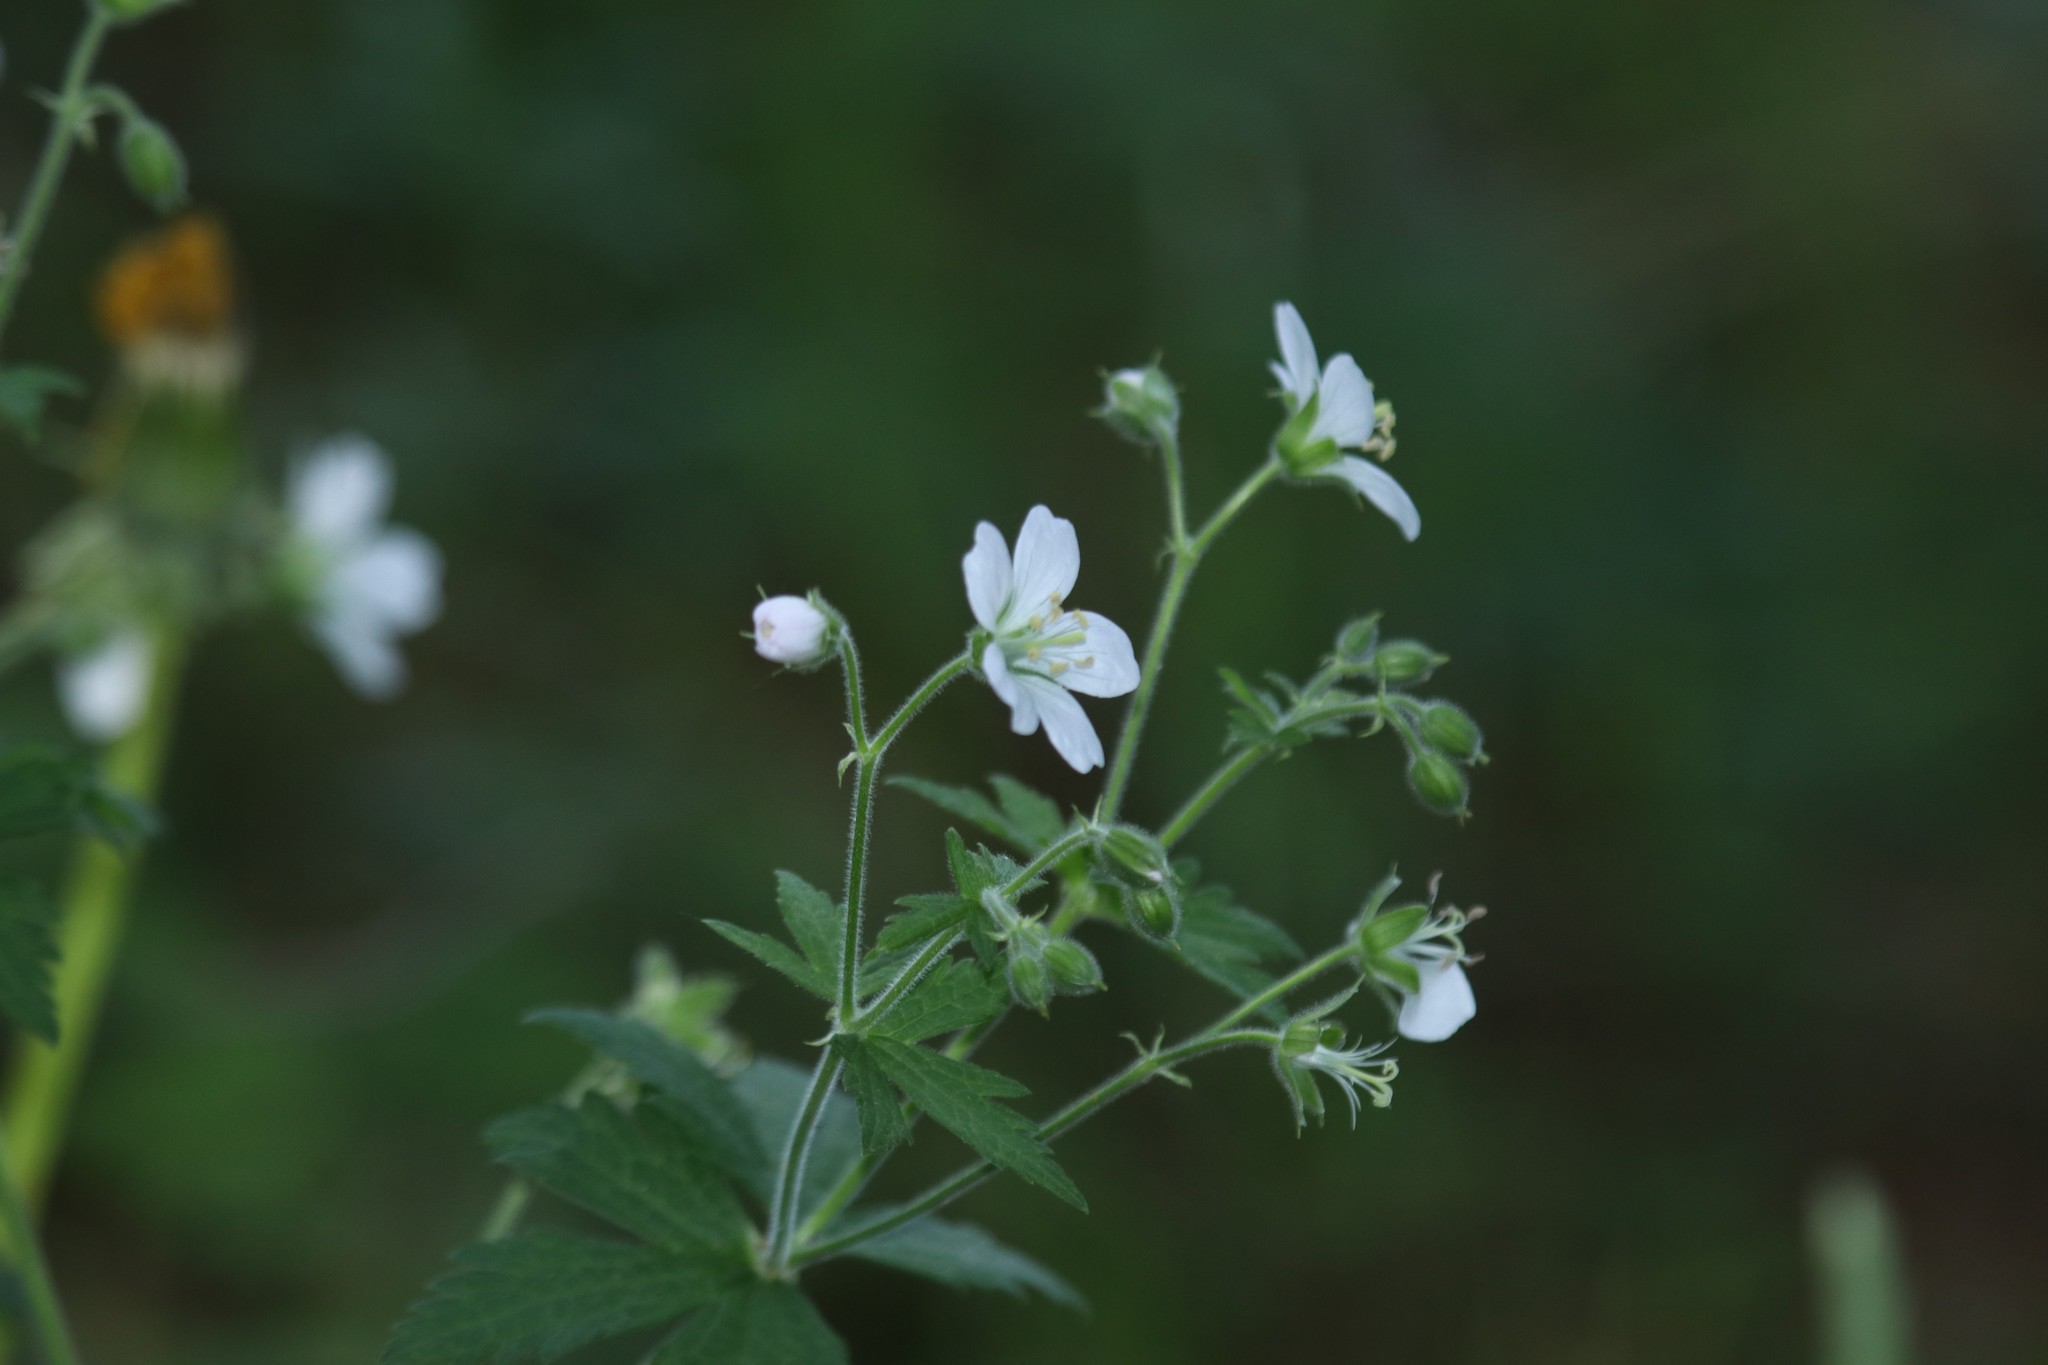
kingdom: Plantae
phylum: Tracheophyta
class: Magnoliopsida
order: Geraniales
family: Geraniaceae
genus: Geranium
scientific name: Geranium sylvaticum
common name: Wood crane's-bill
